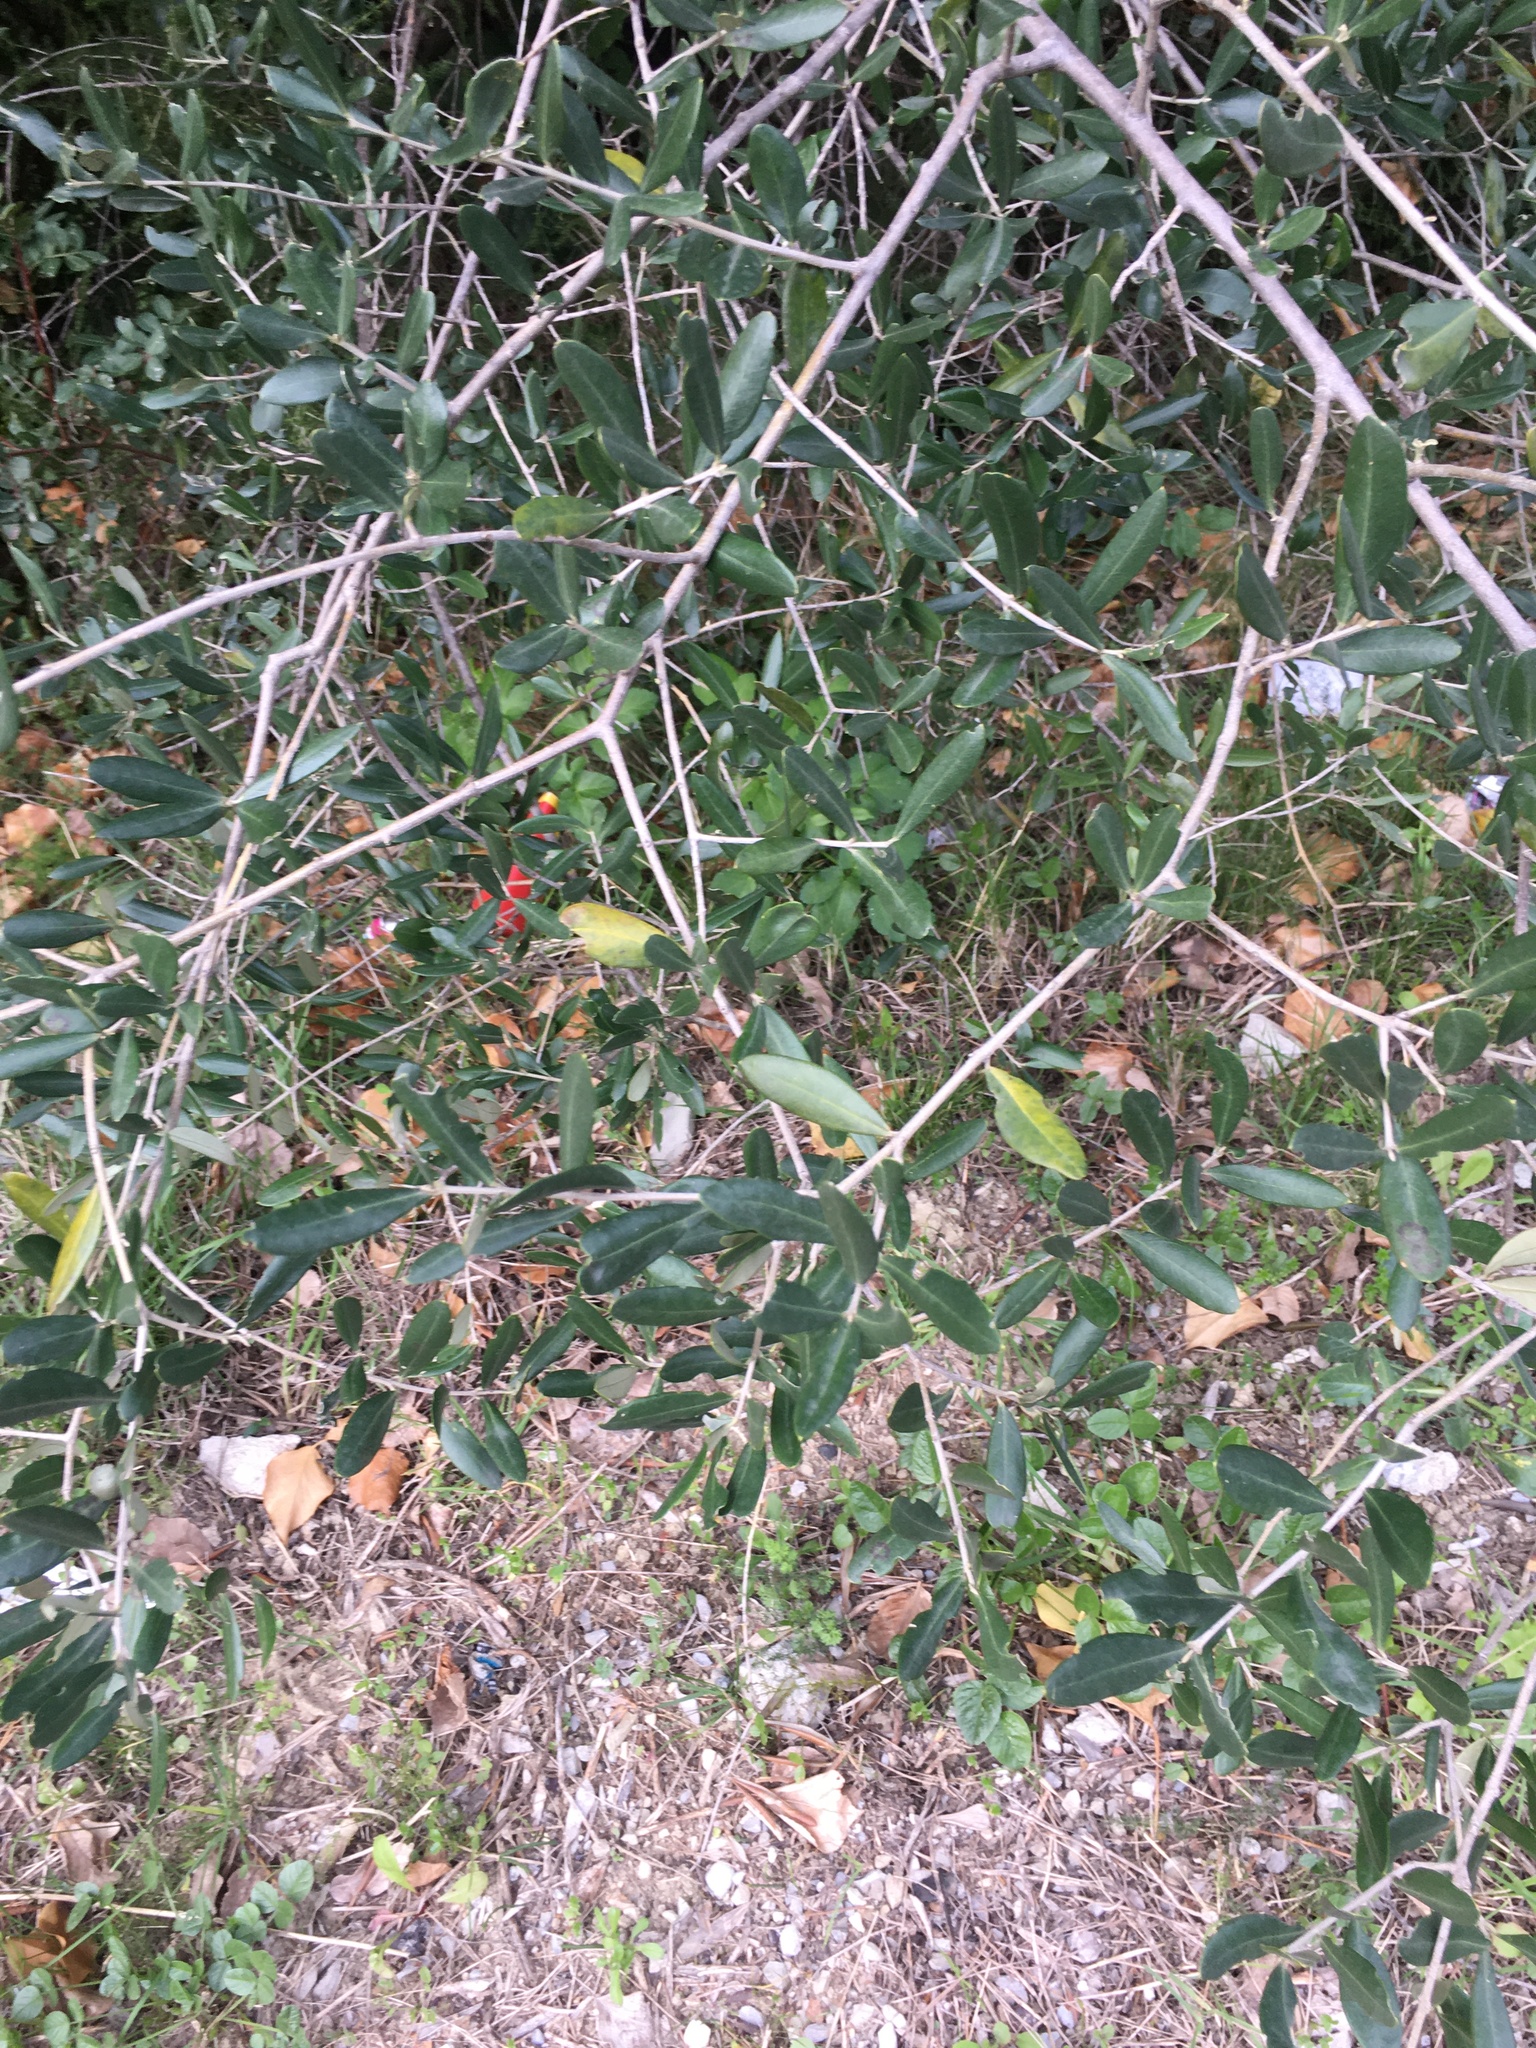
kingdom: Plantae
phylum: Tracheophyta
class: Magnoliopsida
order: Lamiales
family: Oleaceae
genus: Olea
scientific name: Olea europaea
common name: Olive
